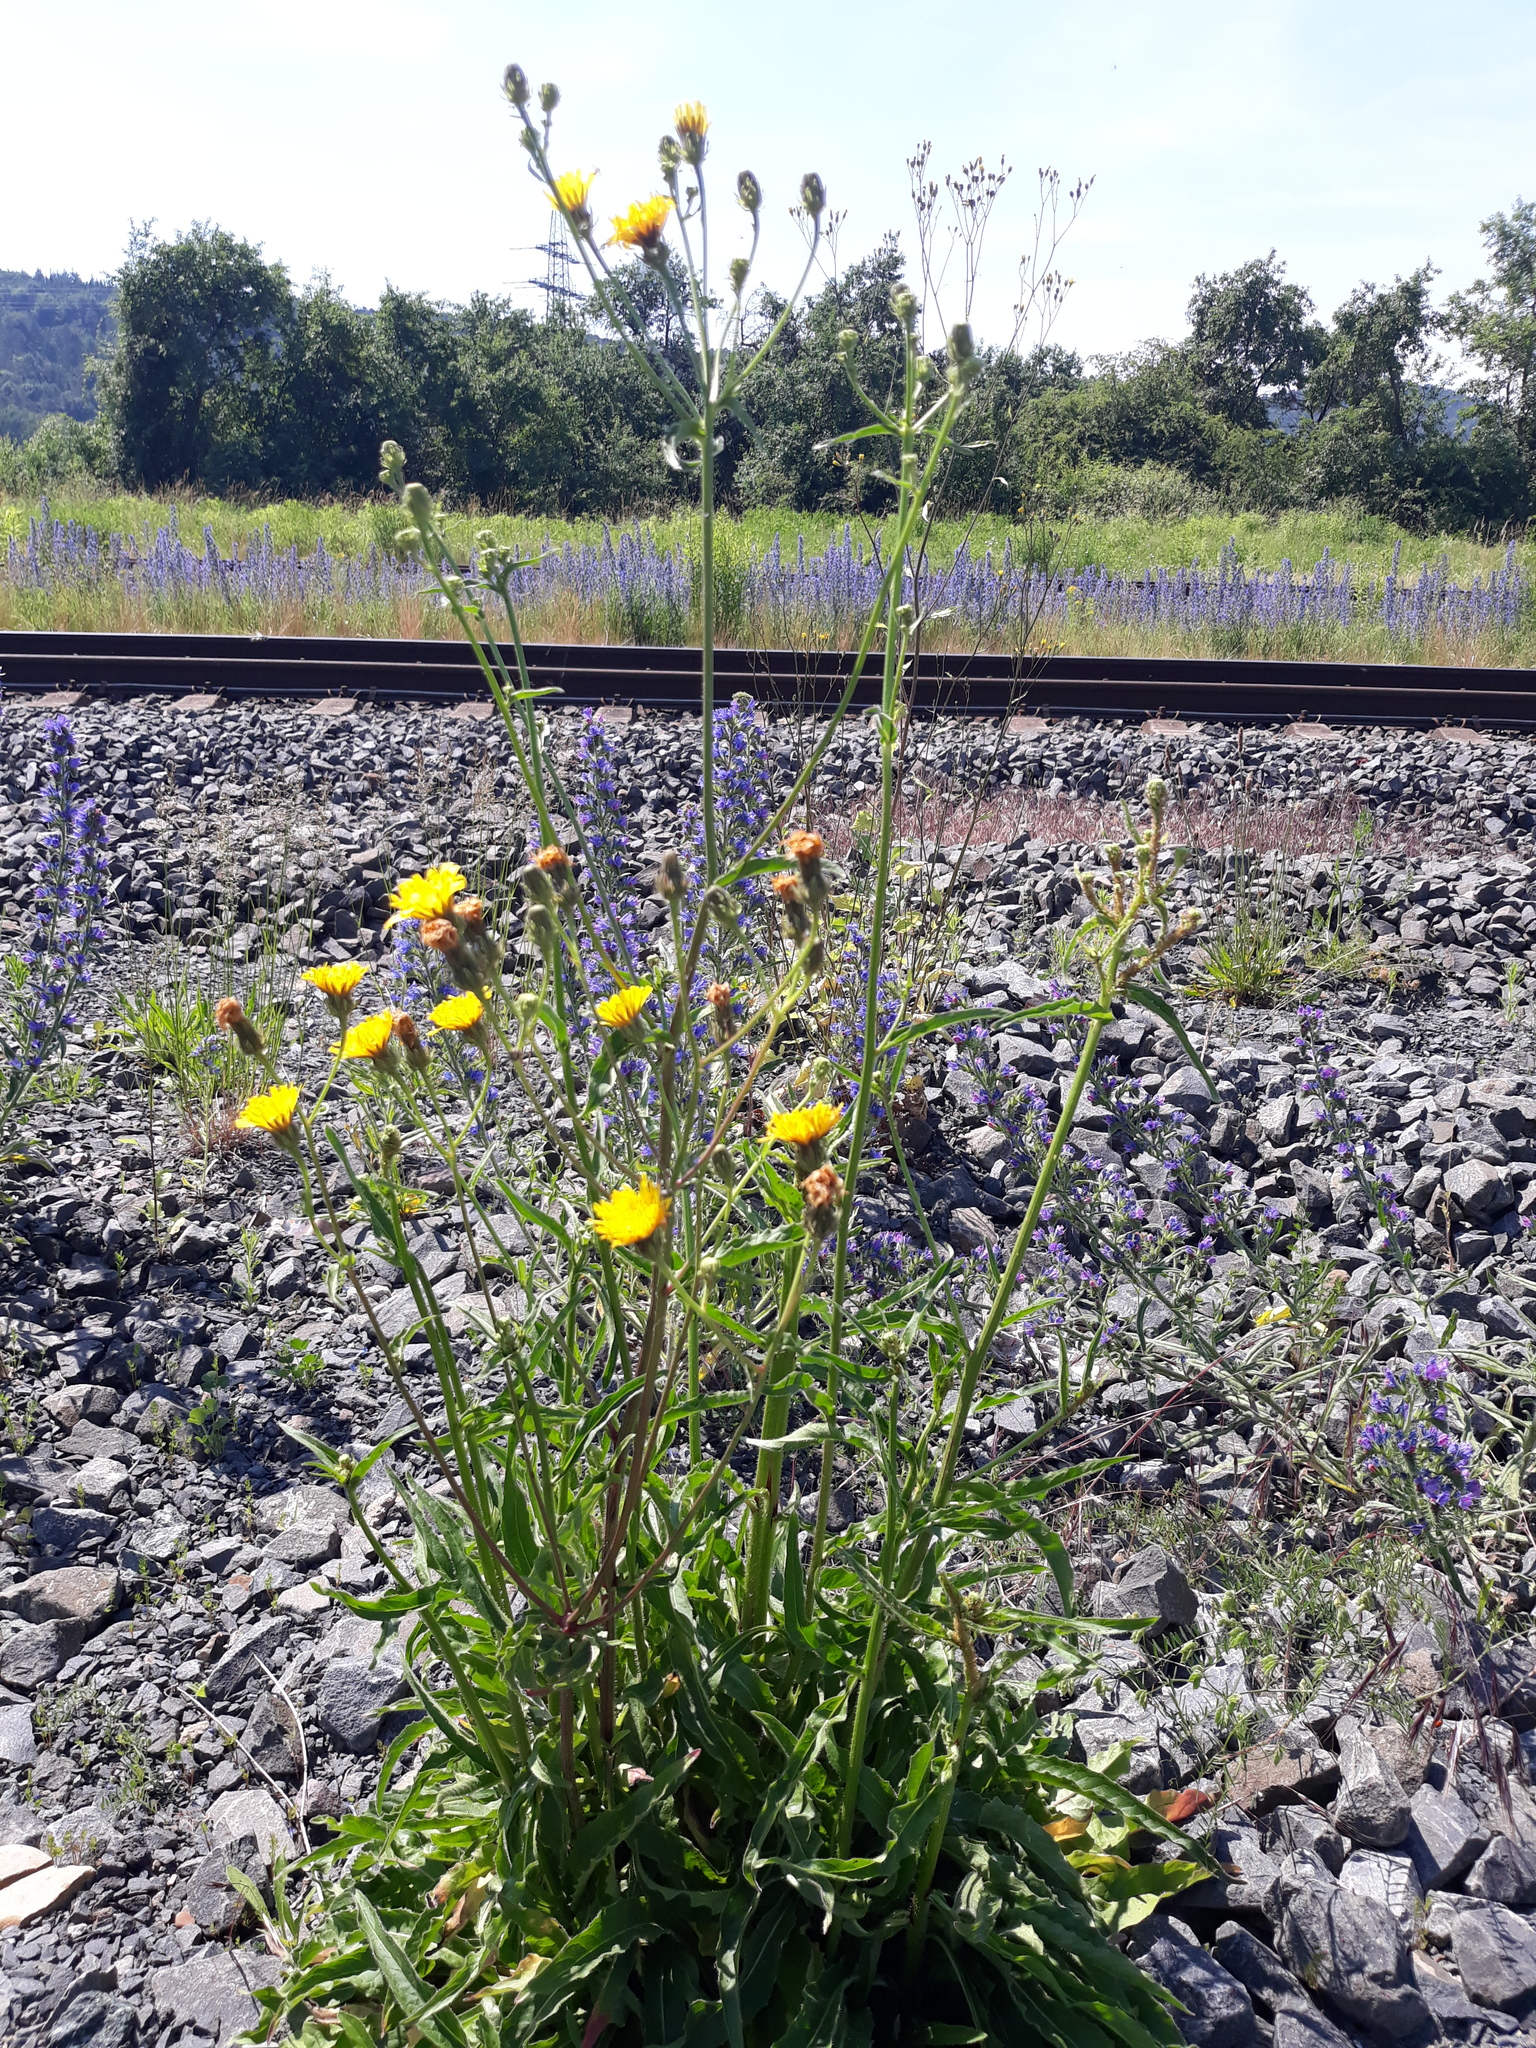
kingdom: Plantae
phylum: Tracheophyta
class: Magnoliopsida
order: Asterales
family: Asteraceae
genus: Picris
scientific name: Picris hieracioides
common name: Hawkweed oxtongue
